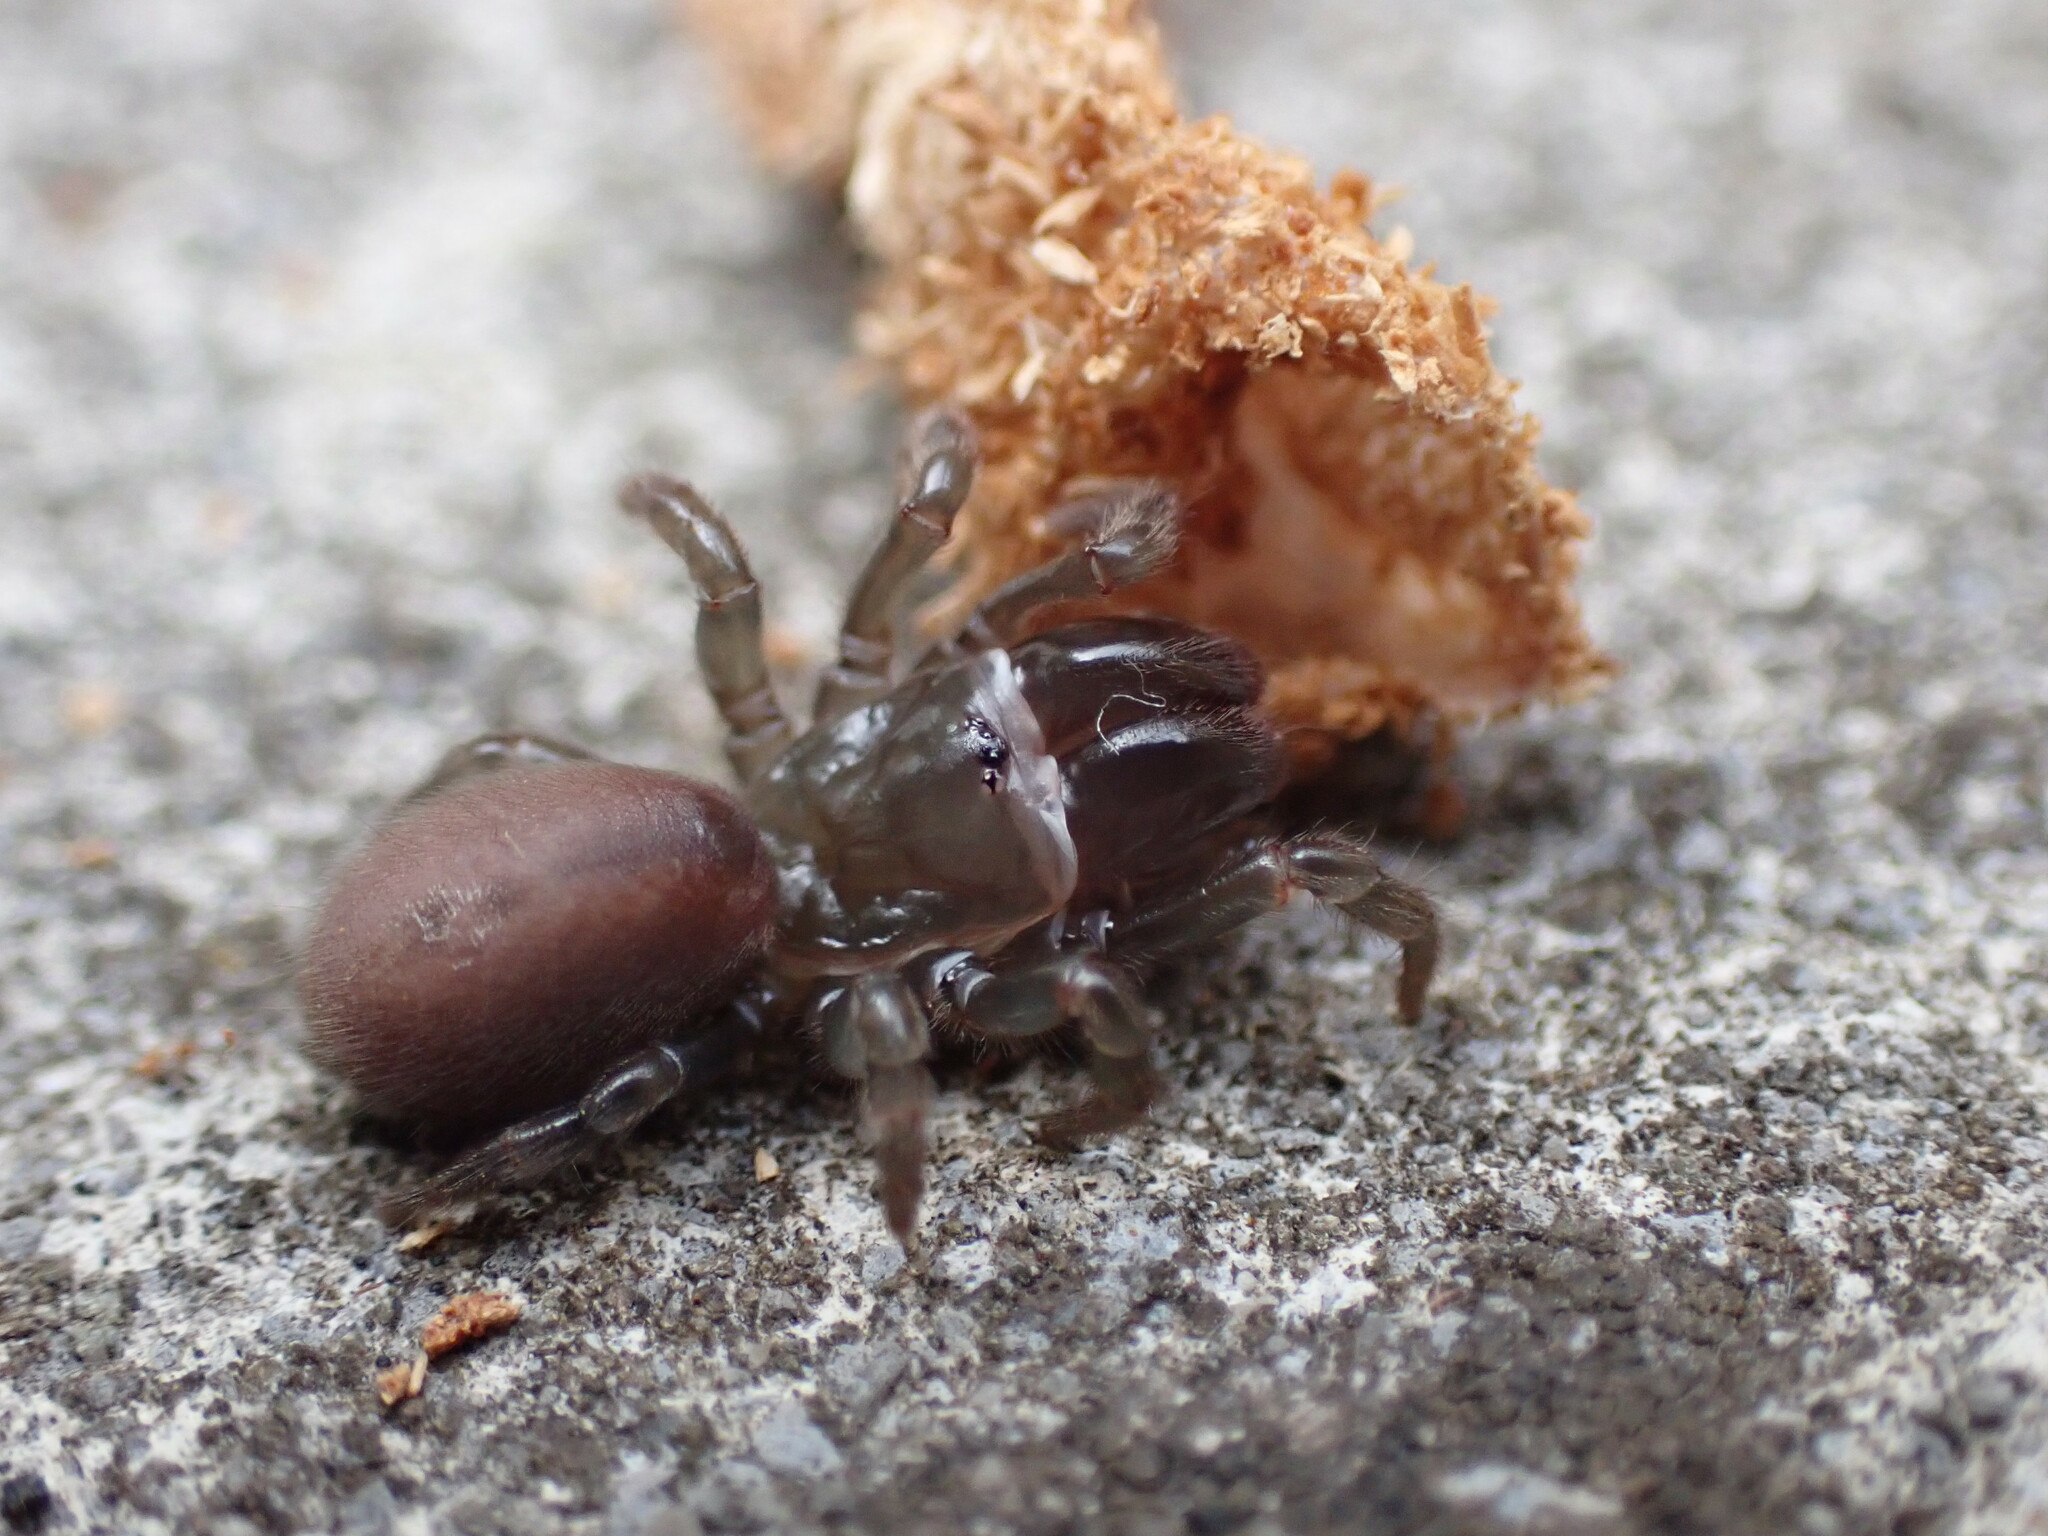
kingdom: Animalia
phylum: Arthropoda
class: Arachnida
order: Araneae
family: Atypidae
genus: Atypus
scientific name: Atypus affinis
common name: Purse web spider
